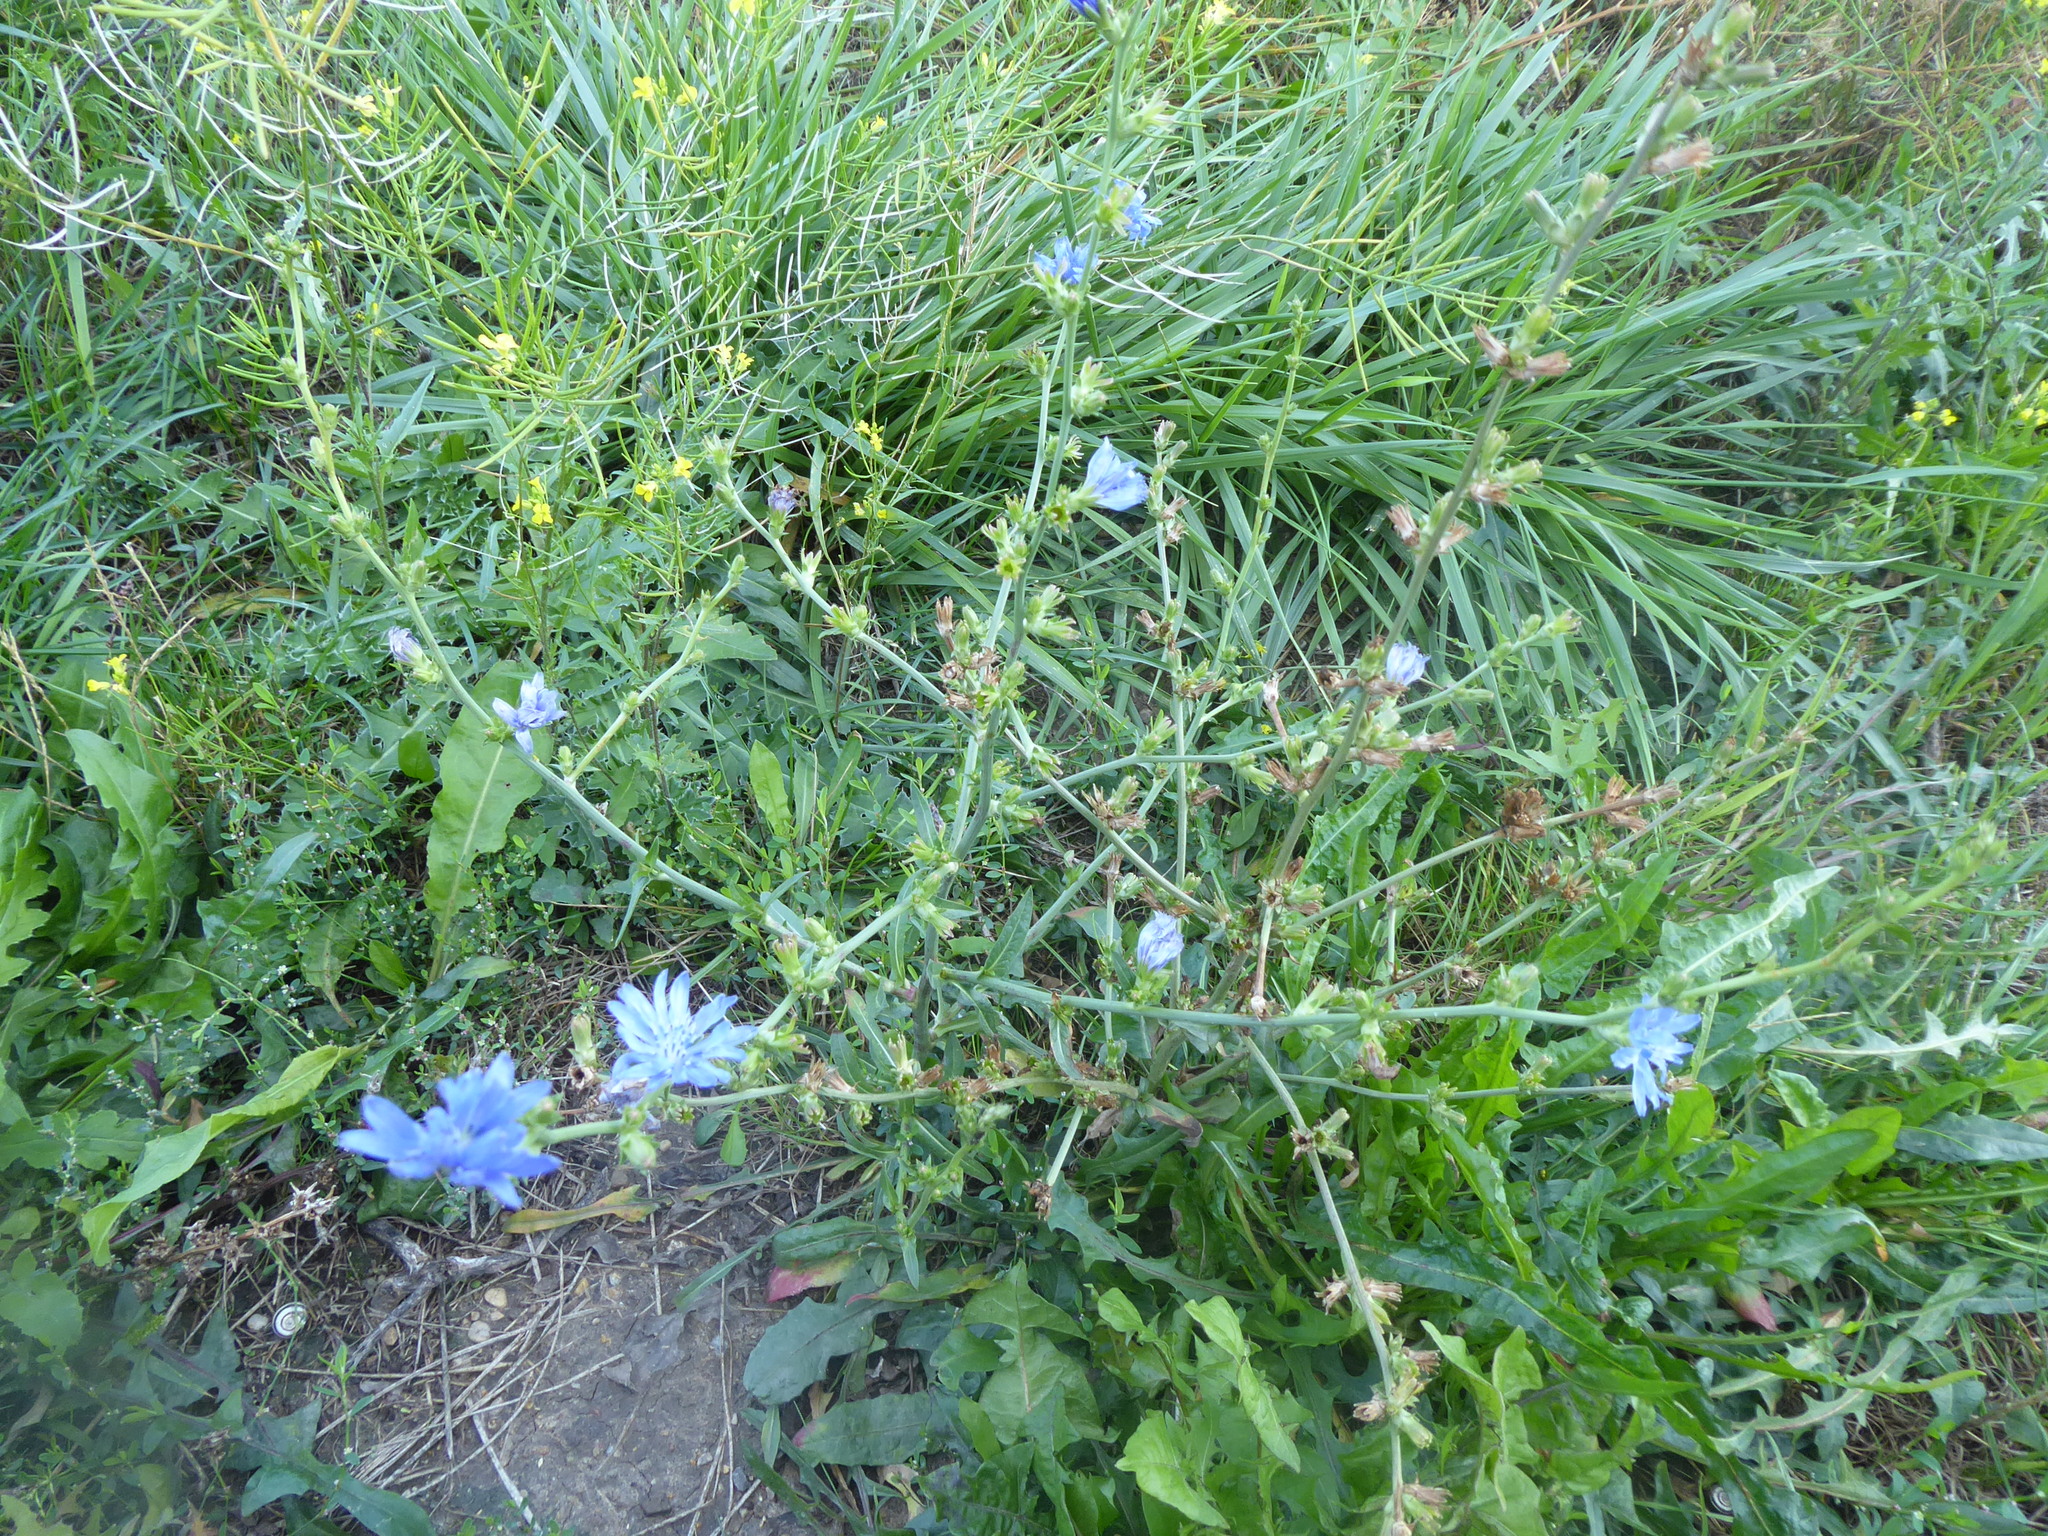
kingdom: Plantae
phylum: Tracheophyta
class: Magnoliopsida
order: Asterales
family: Asteraceae
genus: Cichorium
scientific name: Cichorium intybus
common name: Chicory
